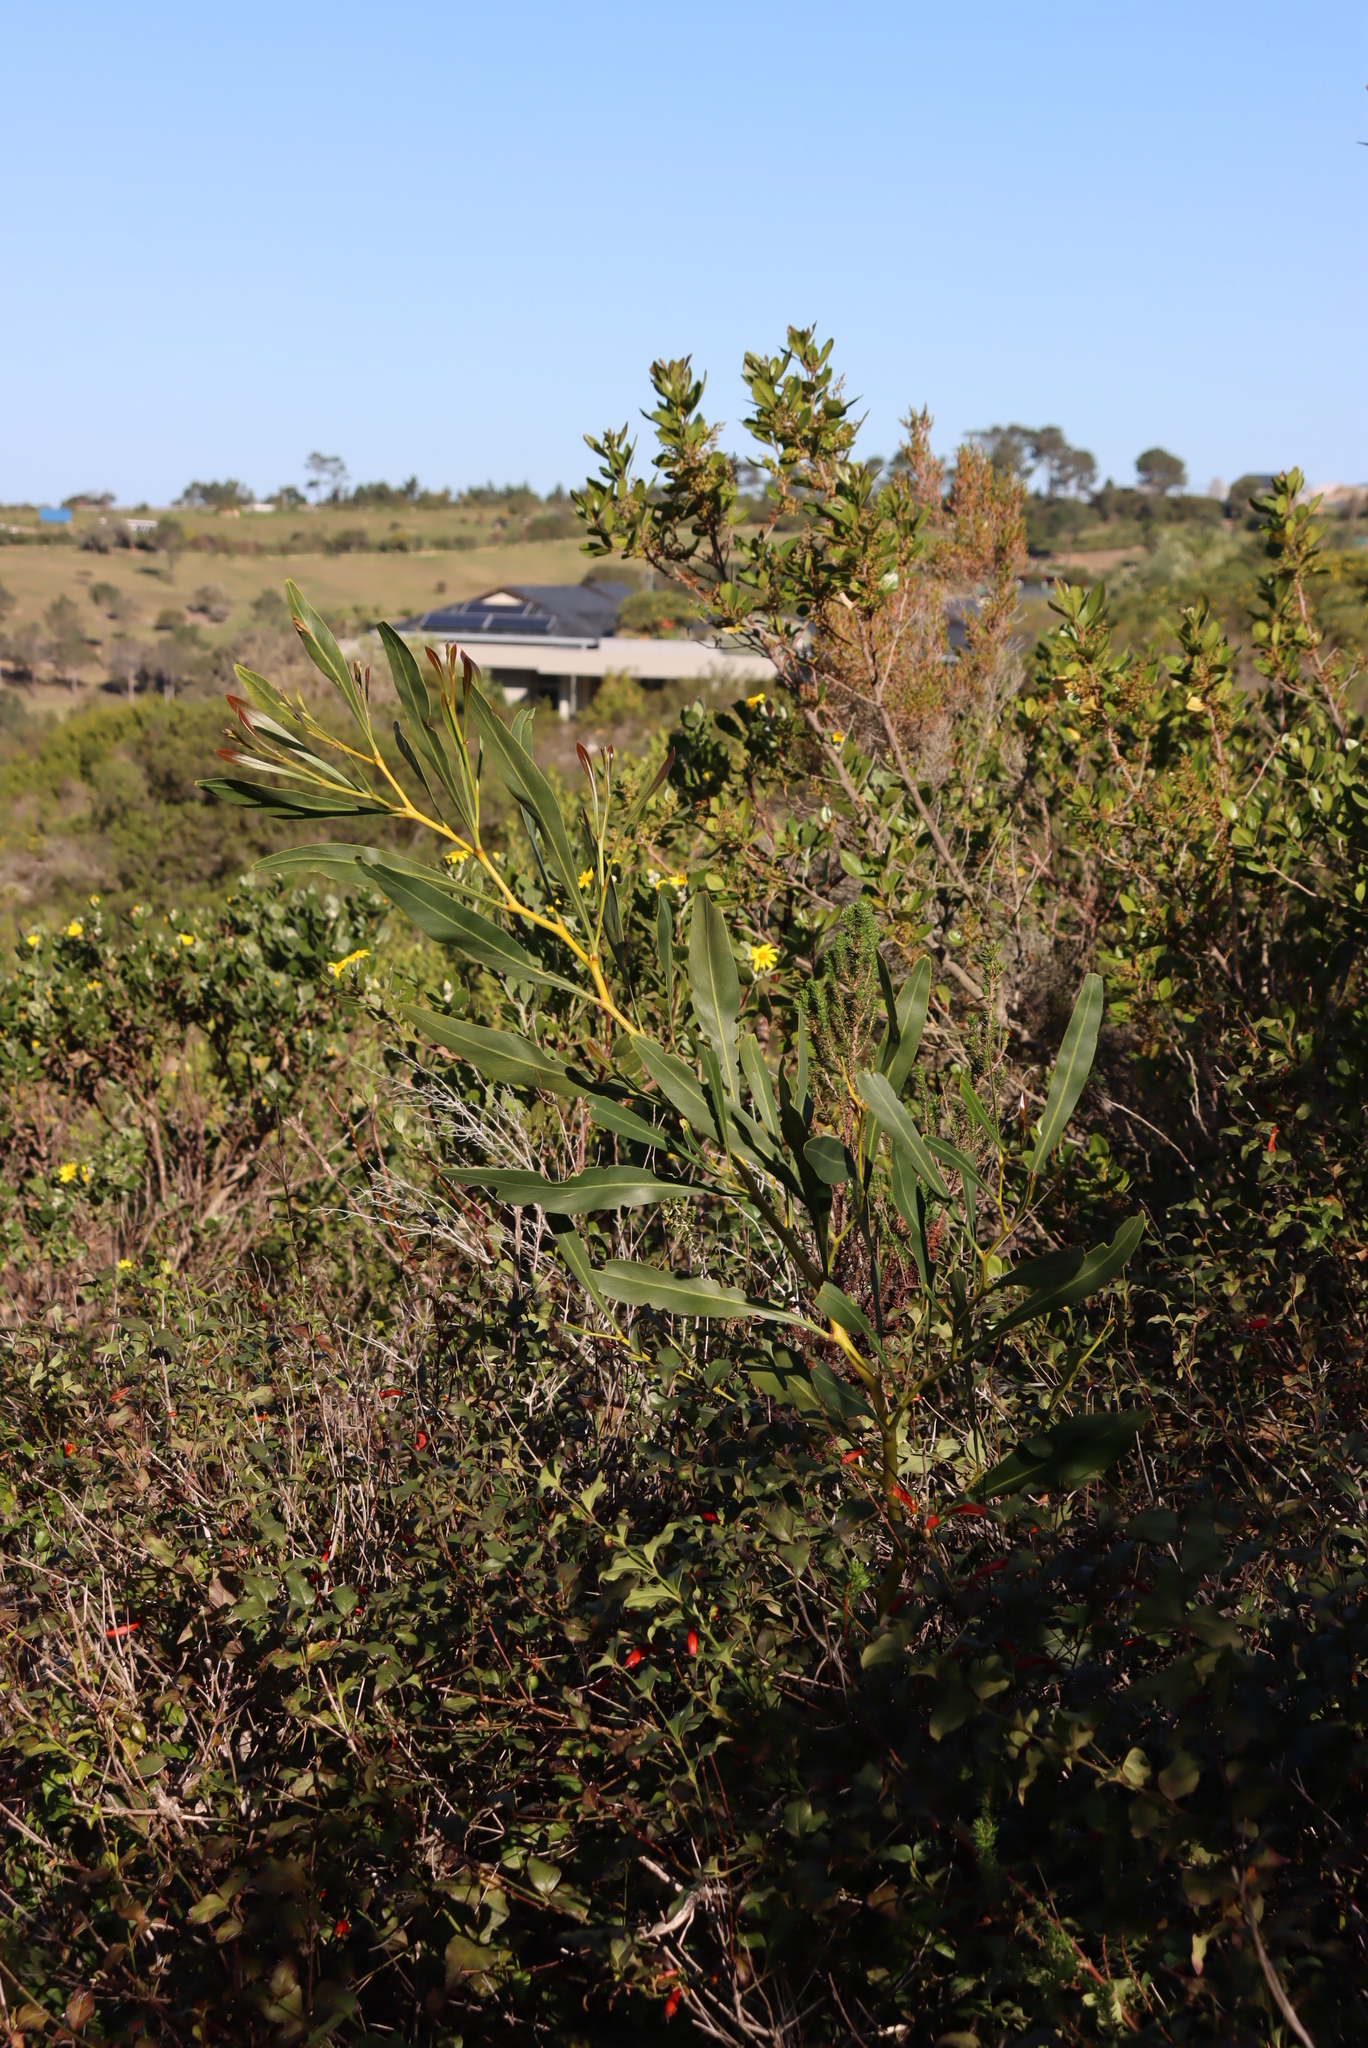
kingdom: Plantae
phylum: Tracheophyta
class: Magnoliopsida
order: Fabales
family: Fabaceae
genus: Acacia
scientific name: Acacia saligna
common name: Orange wattle
